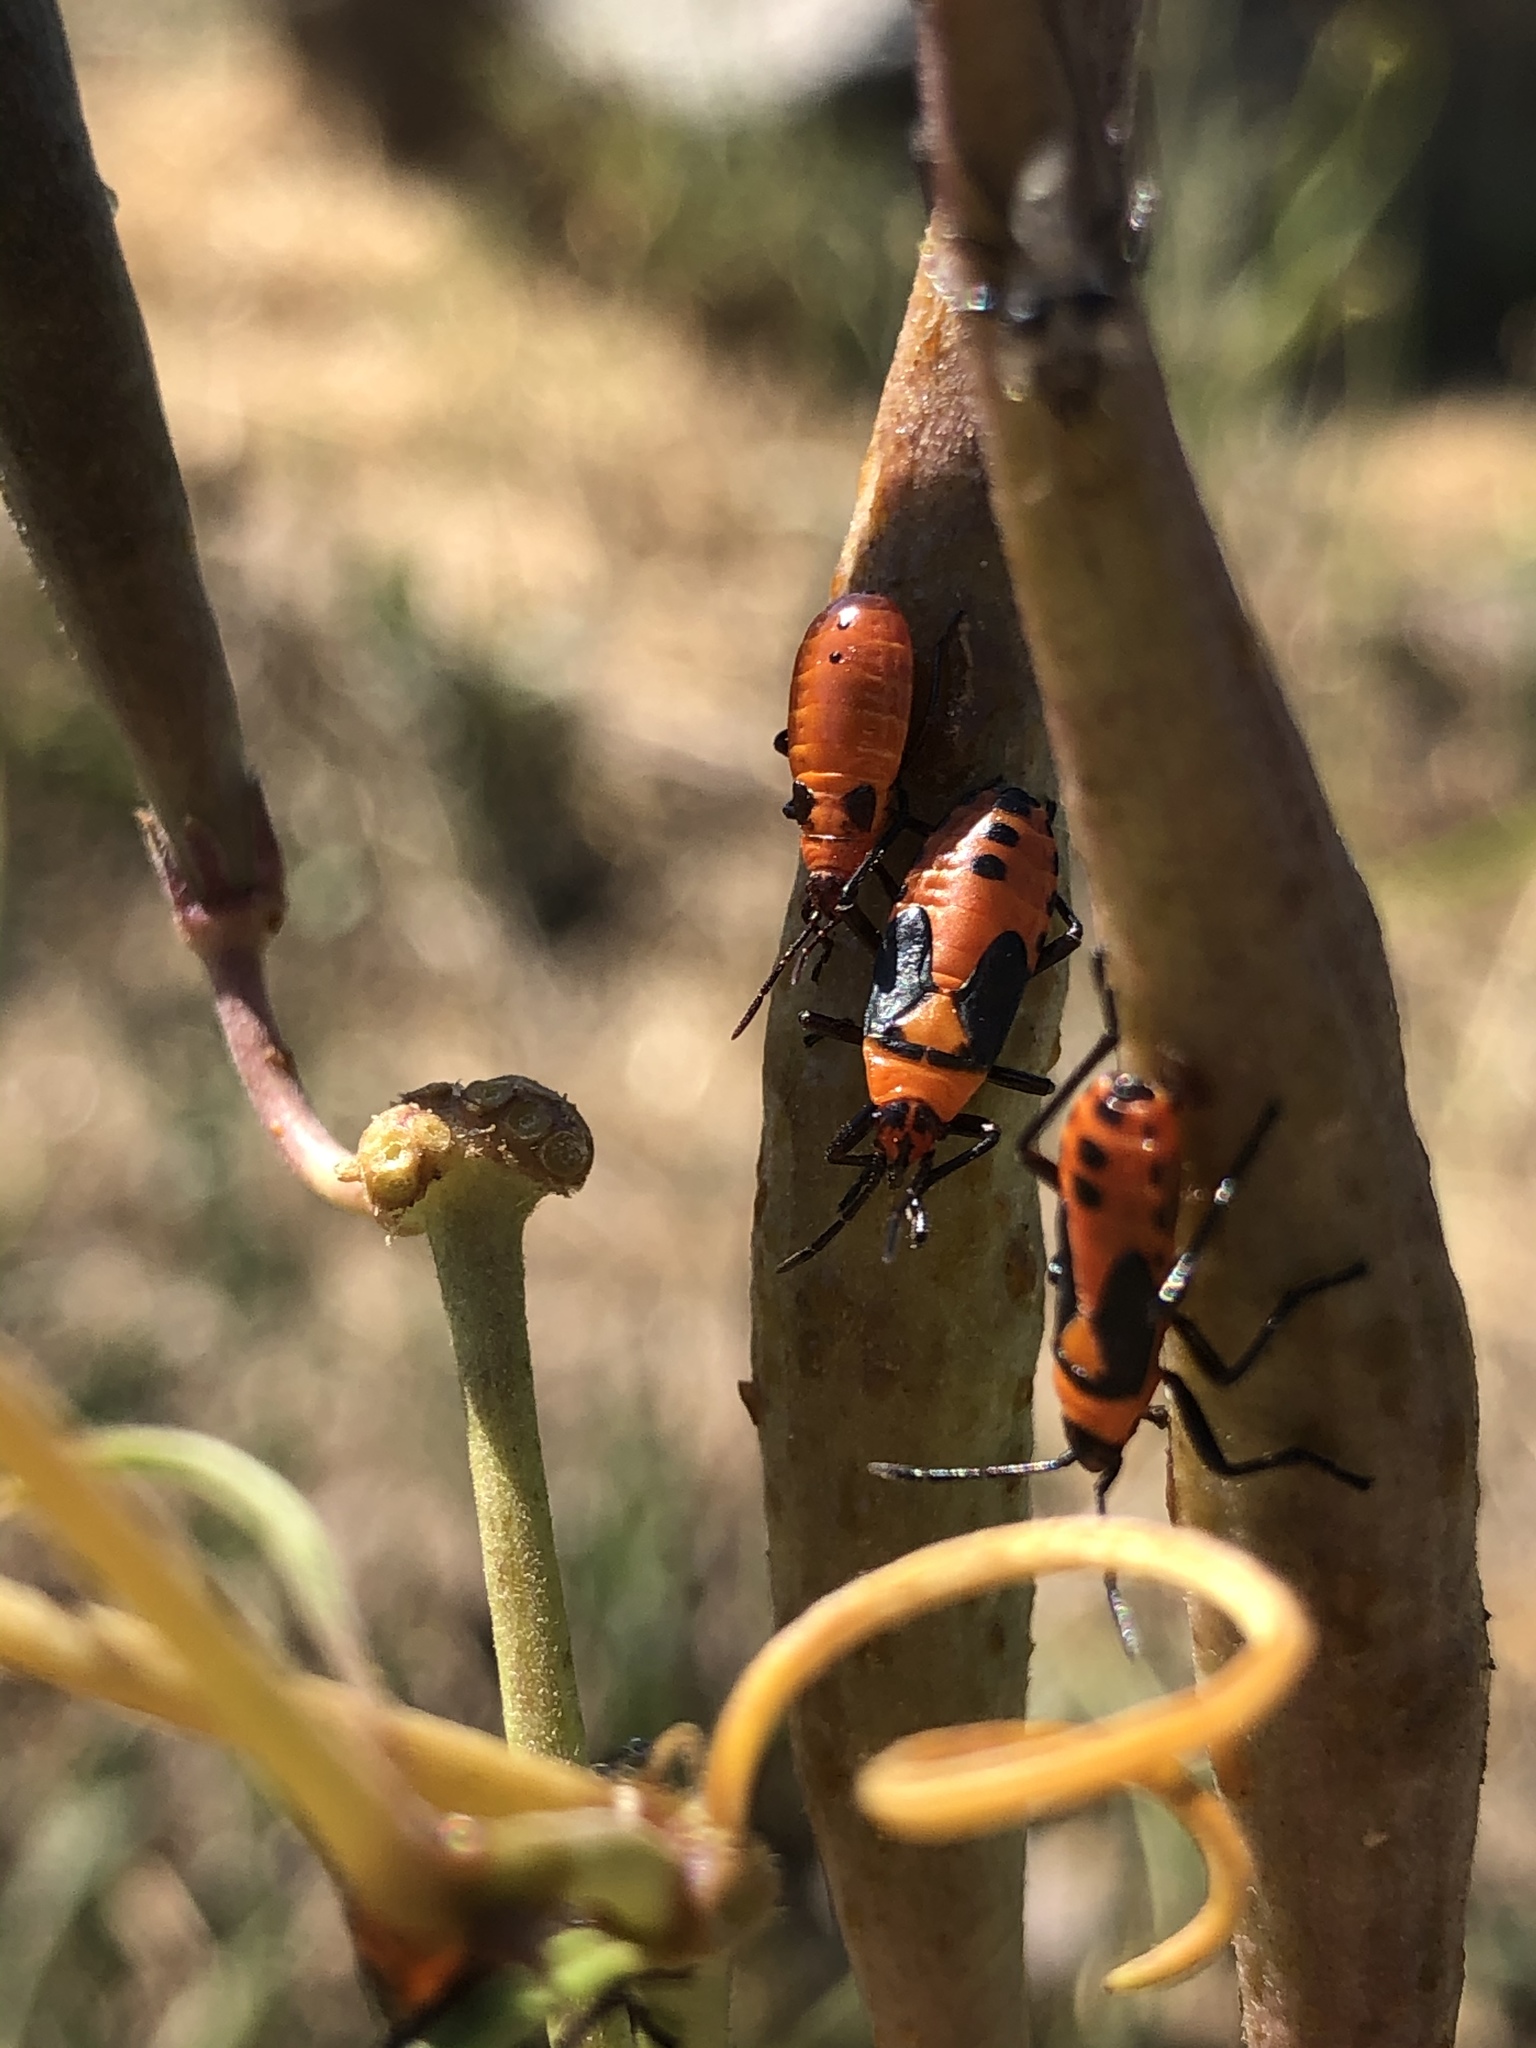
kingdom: Animalia
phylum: Arthropoda
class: Insecta
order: Hemiptera
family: Lygaeidae
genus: Oncopeltus
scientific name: Oncopeltus fasciatus
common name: Large milkweed bug
